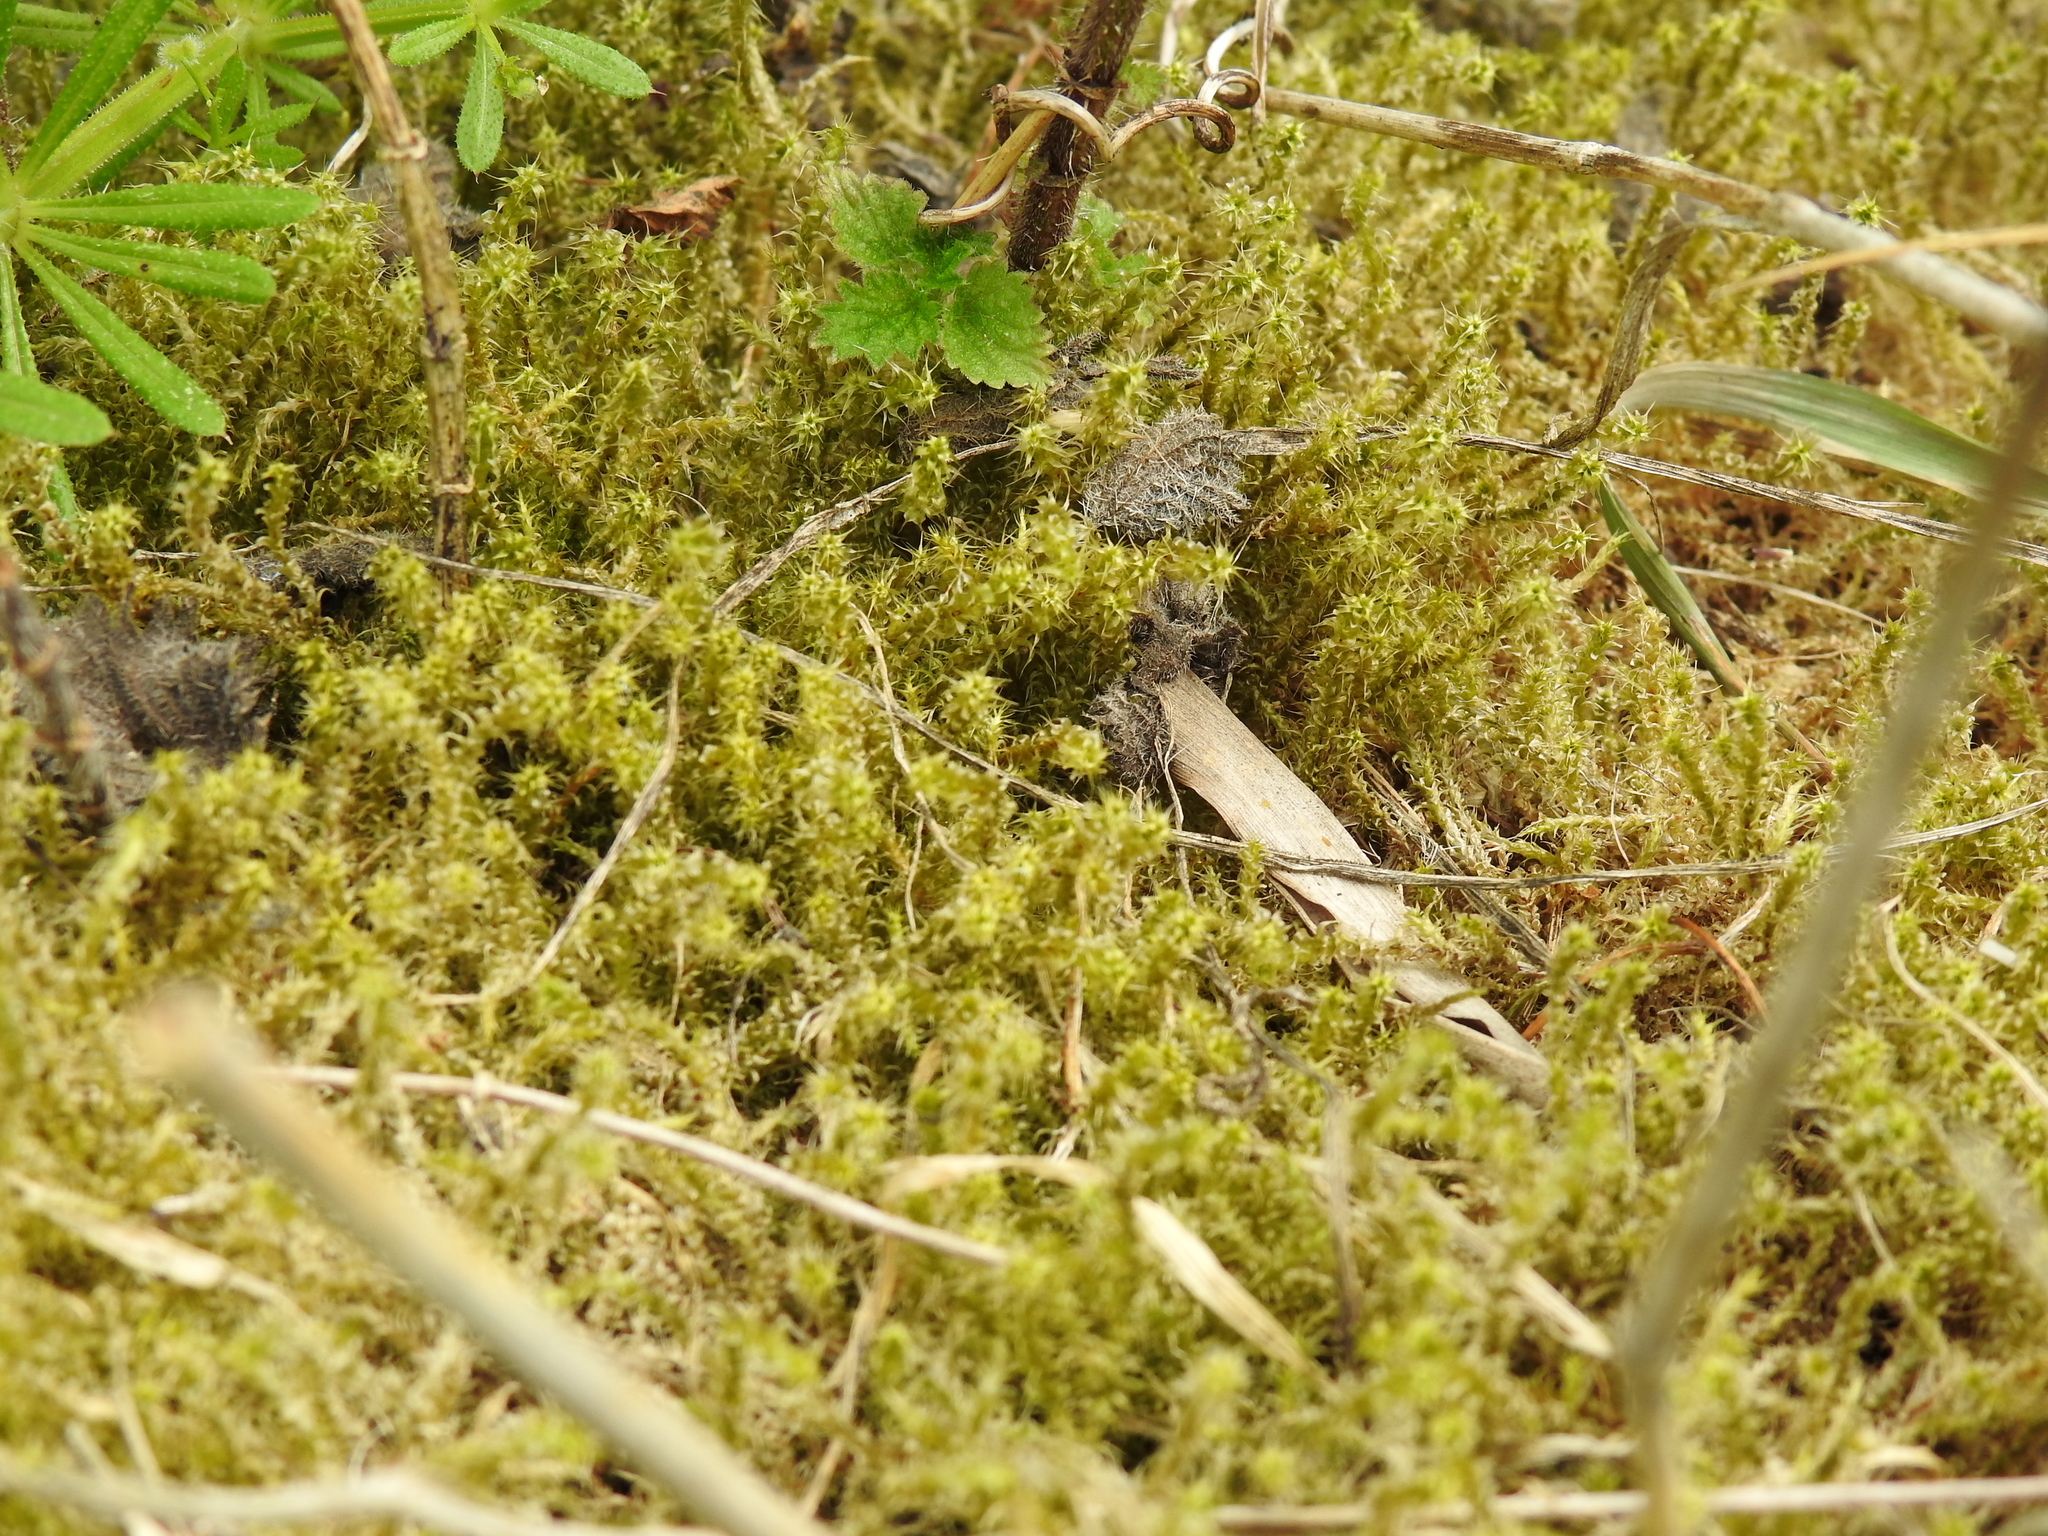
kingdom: Plantae
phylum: Bryophyta
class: Bryopsida
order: Hypnales
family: Hylocomiaceae
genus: Rhytidiadelphus
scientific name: Rhytidiadelphus squarrosus
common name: Springy turf-moss
